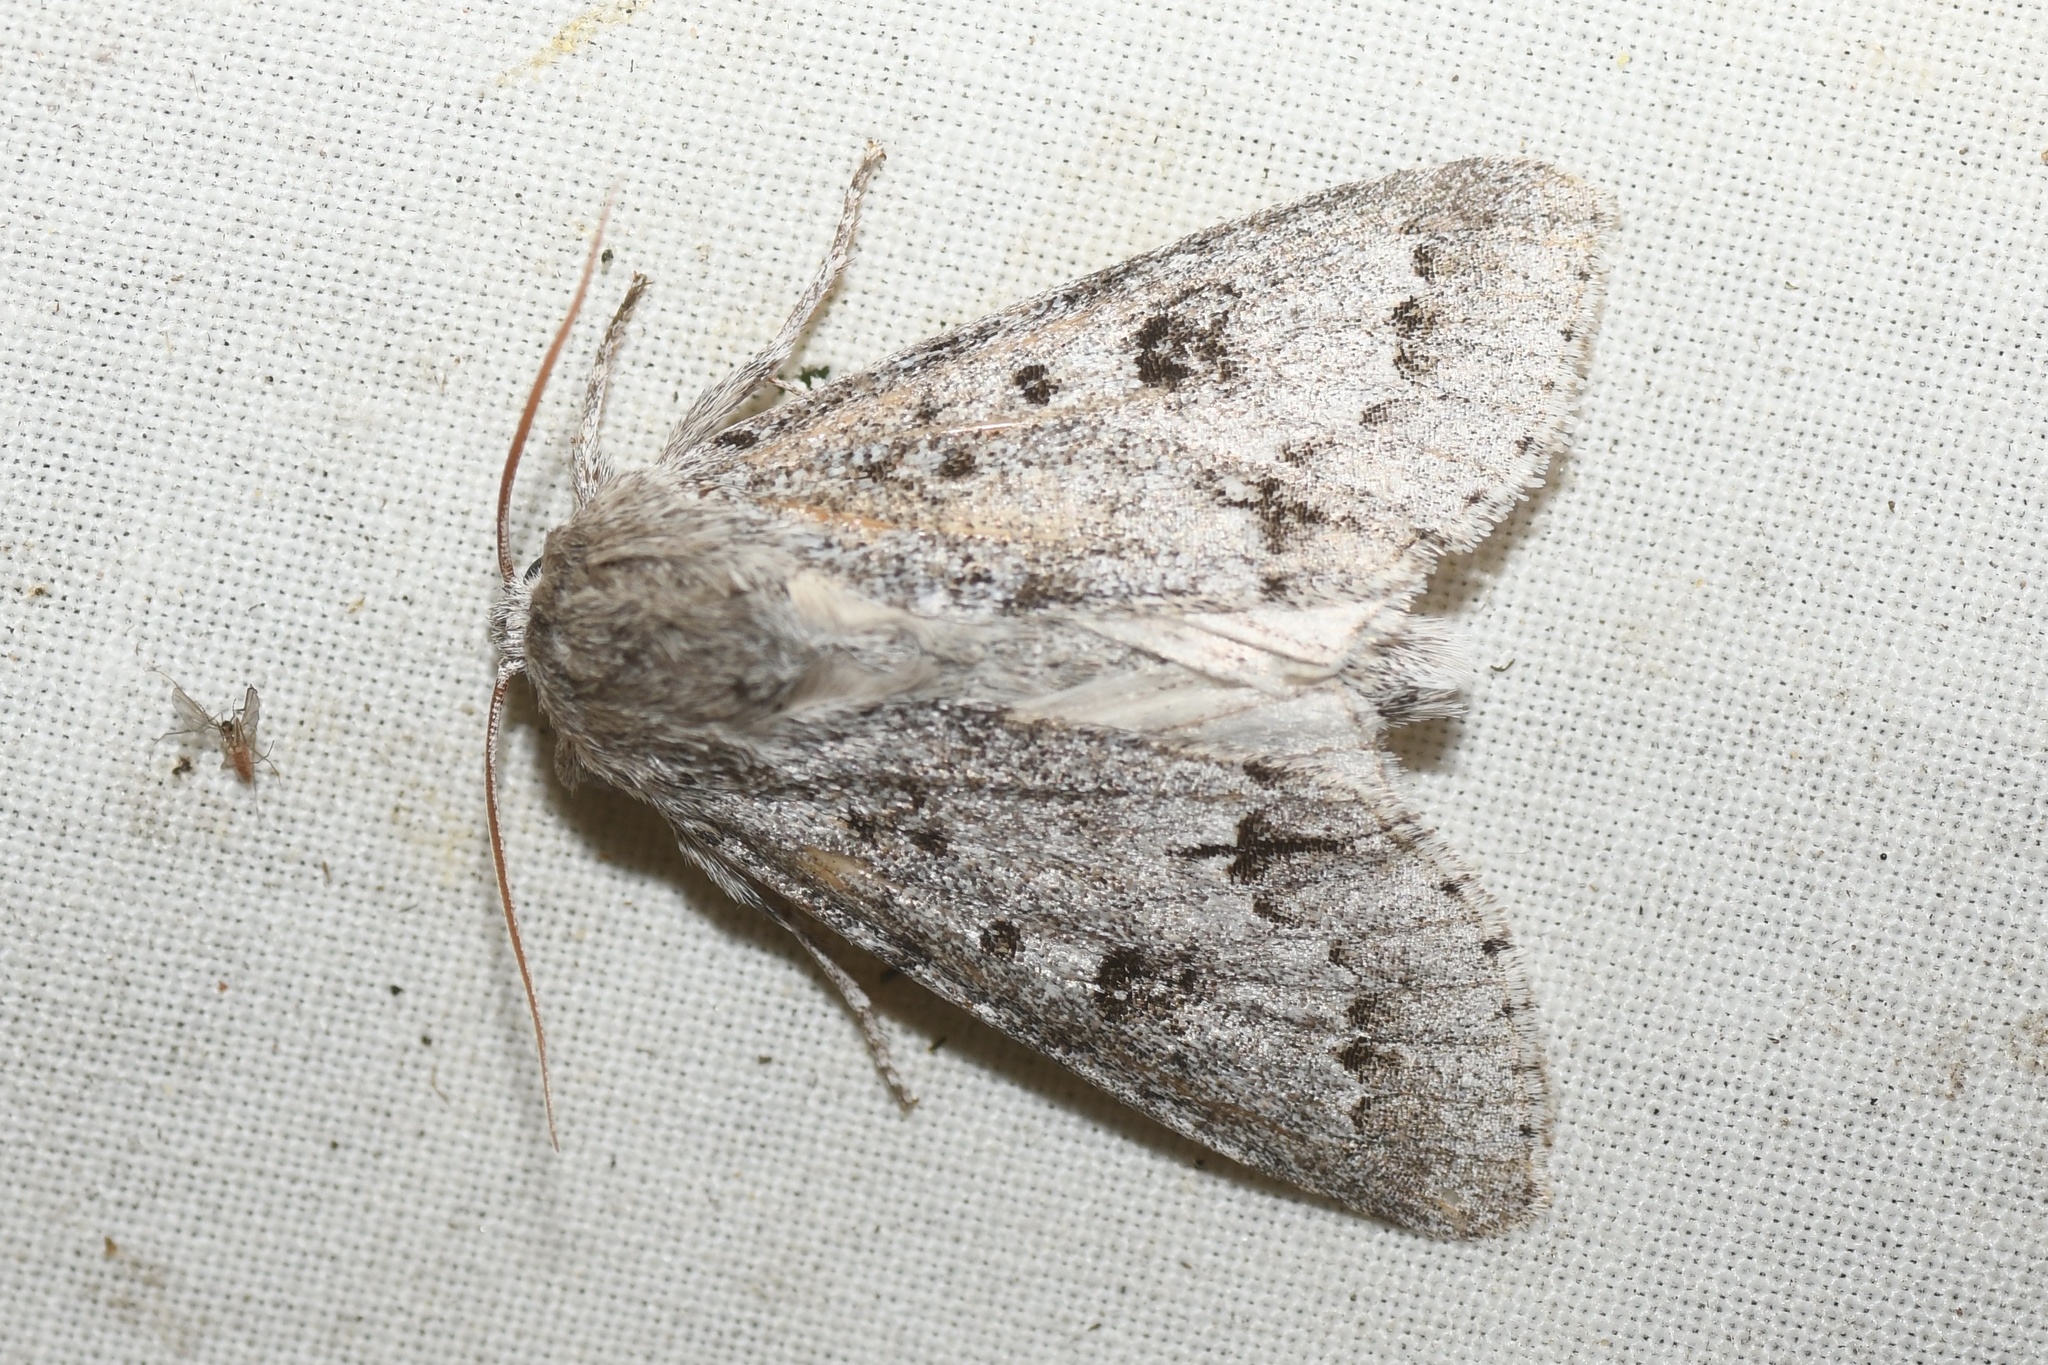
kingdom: Animalia
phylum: Arthropoda
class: Insecta
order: Lepidoptera
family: Noctuidae
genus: Acronicta
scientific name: Acronicta insita
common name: Large gray dagger
